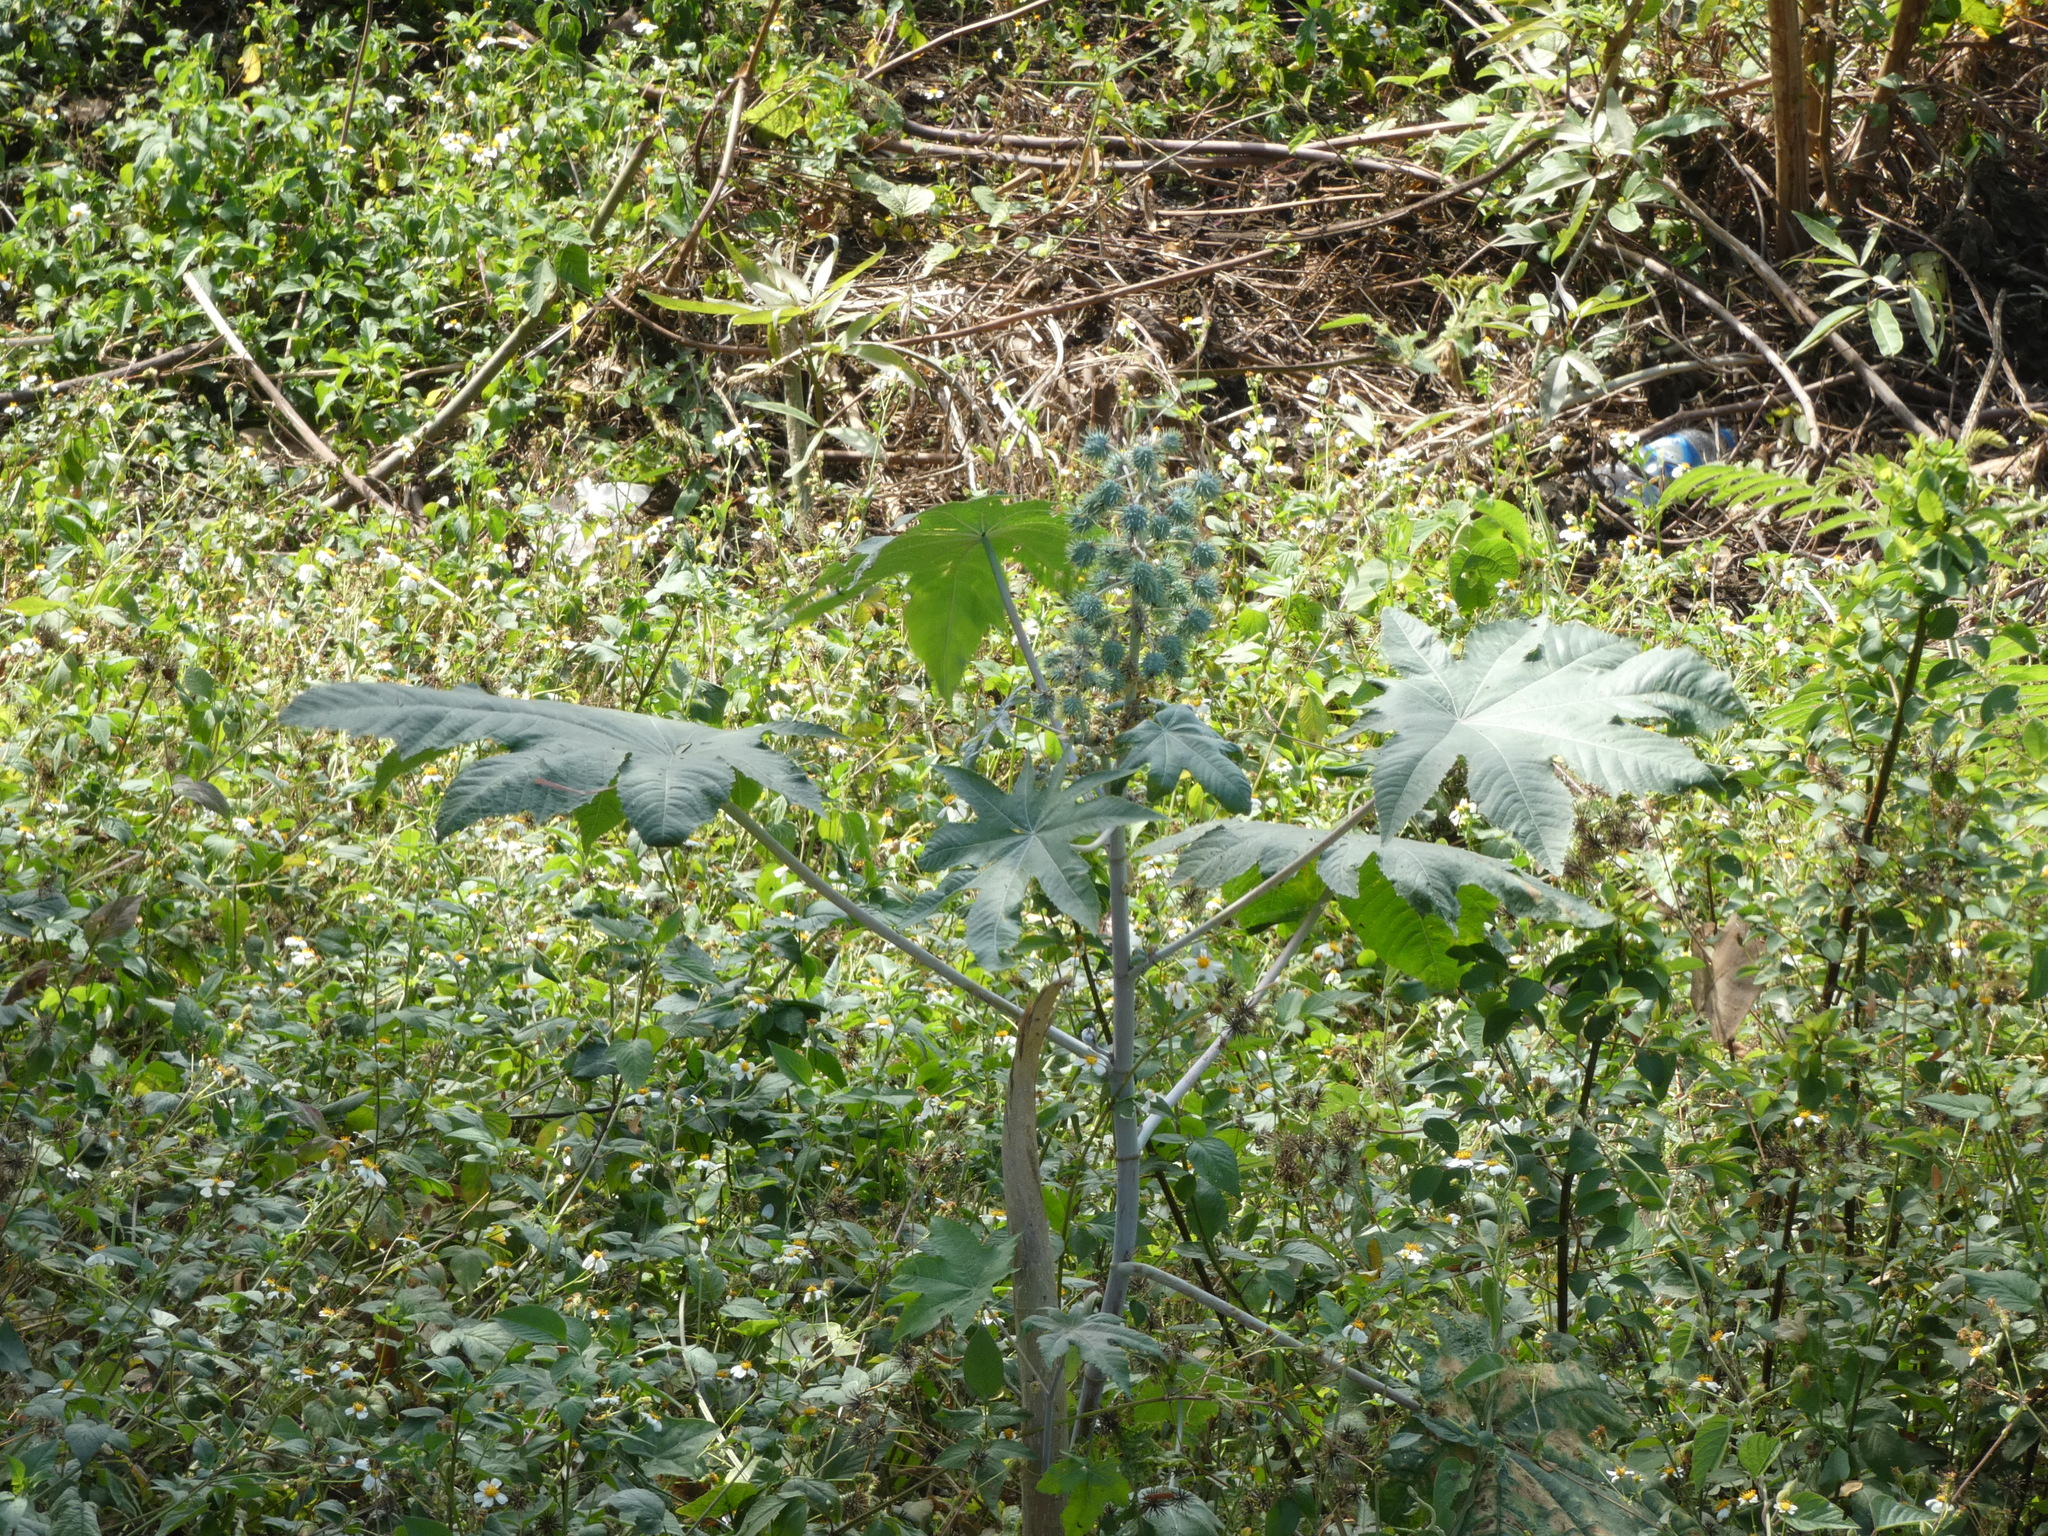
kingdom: Plantae
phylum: Tracheophyta
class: Magnoliopsida
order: Malpighiales
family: Euphorbiaceae
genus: Ricinus
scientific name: Ricinus communis
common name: Castor-oil-plant
